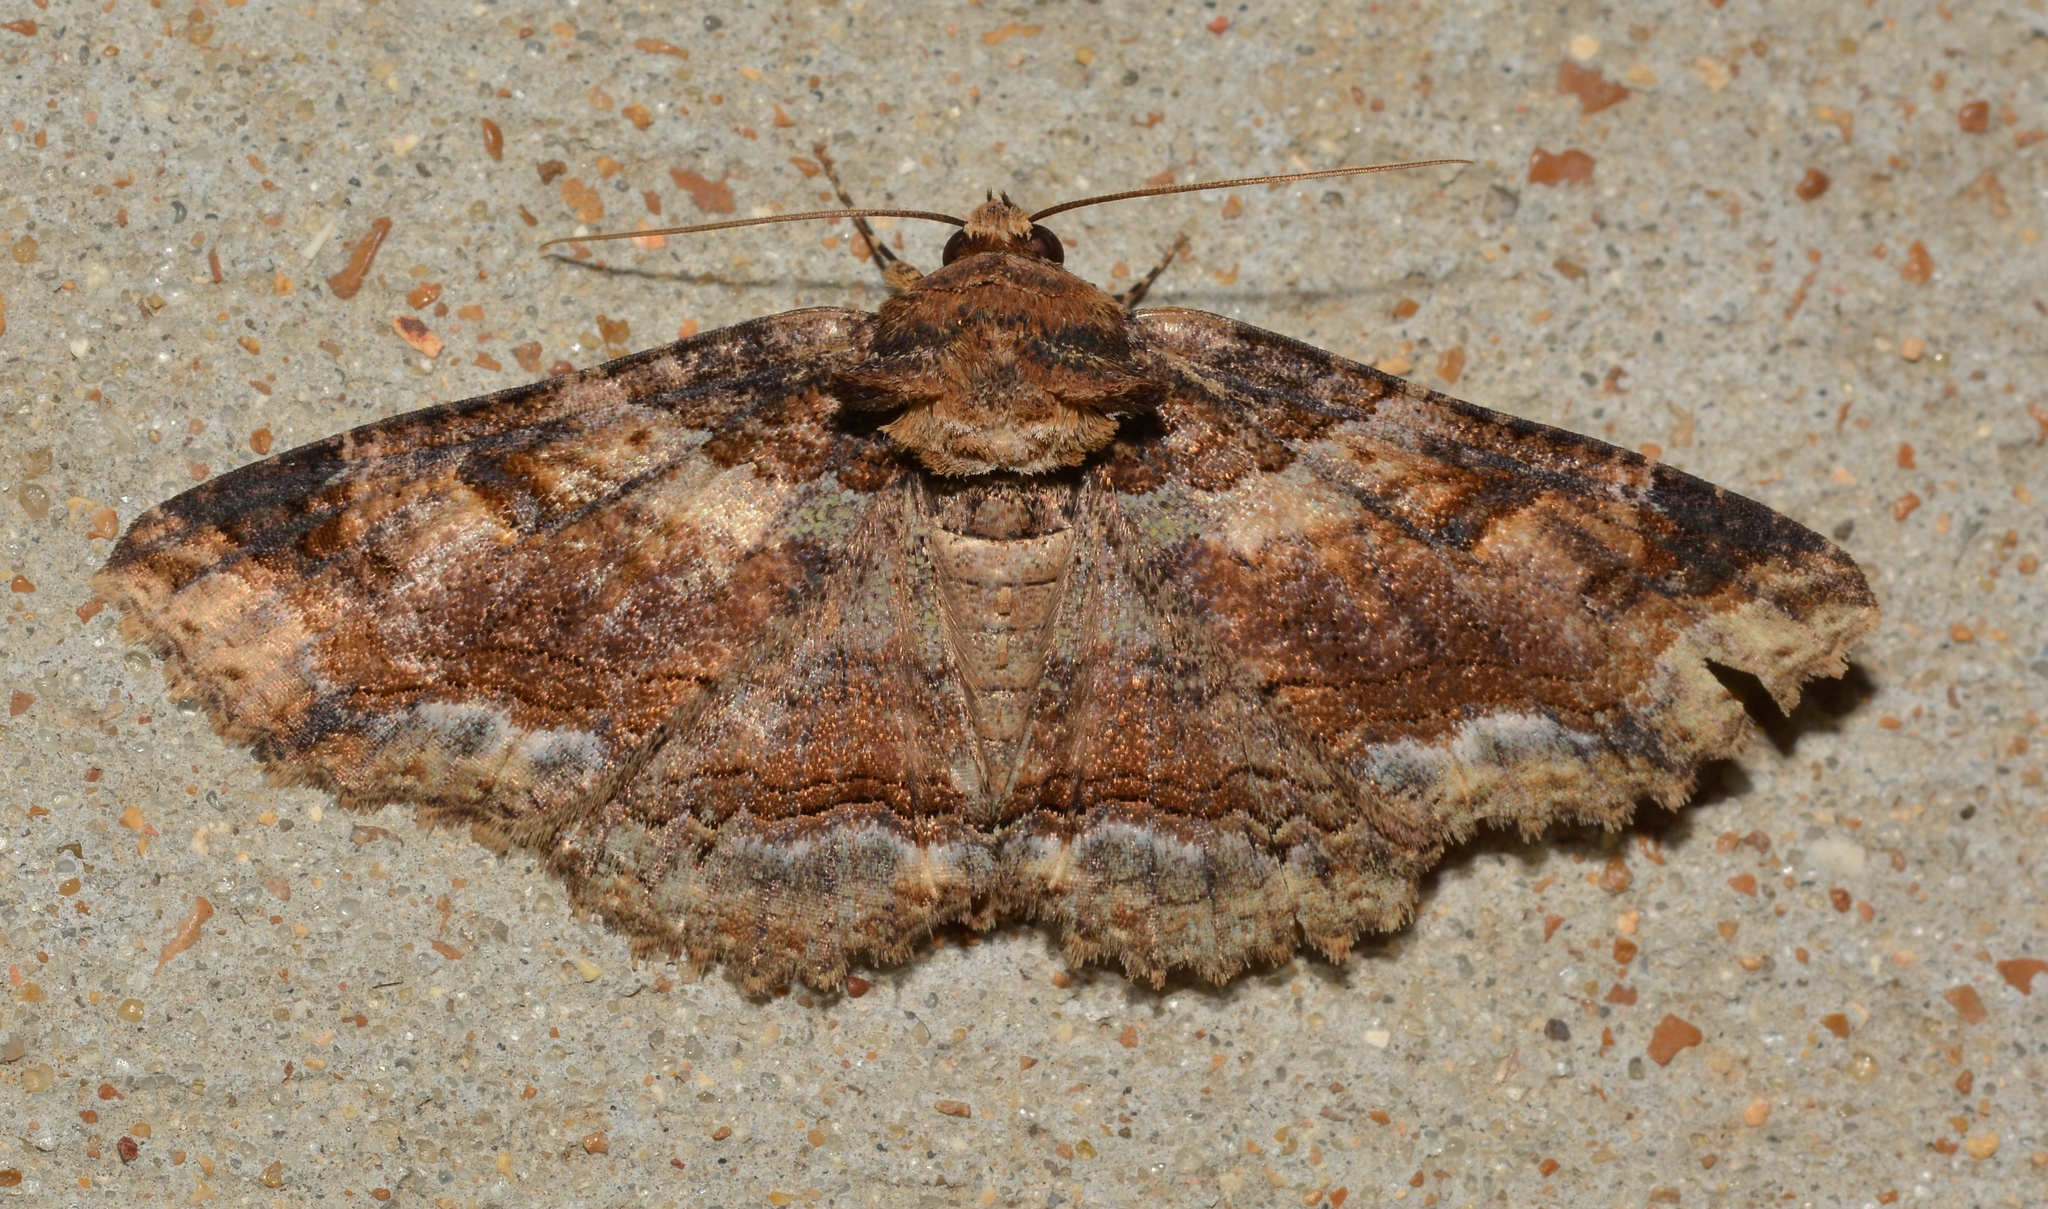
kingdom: Animalia
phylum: Arthropoda
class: Insecta
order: Lepidoptera
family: Erebidae
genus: Zale
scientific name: Zale minerea
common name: Colorful zale moth
